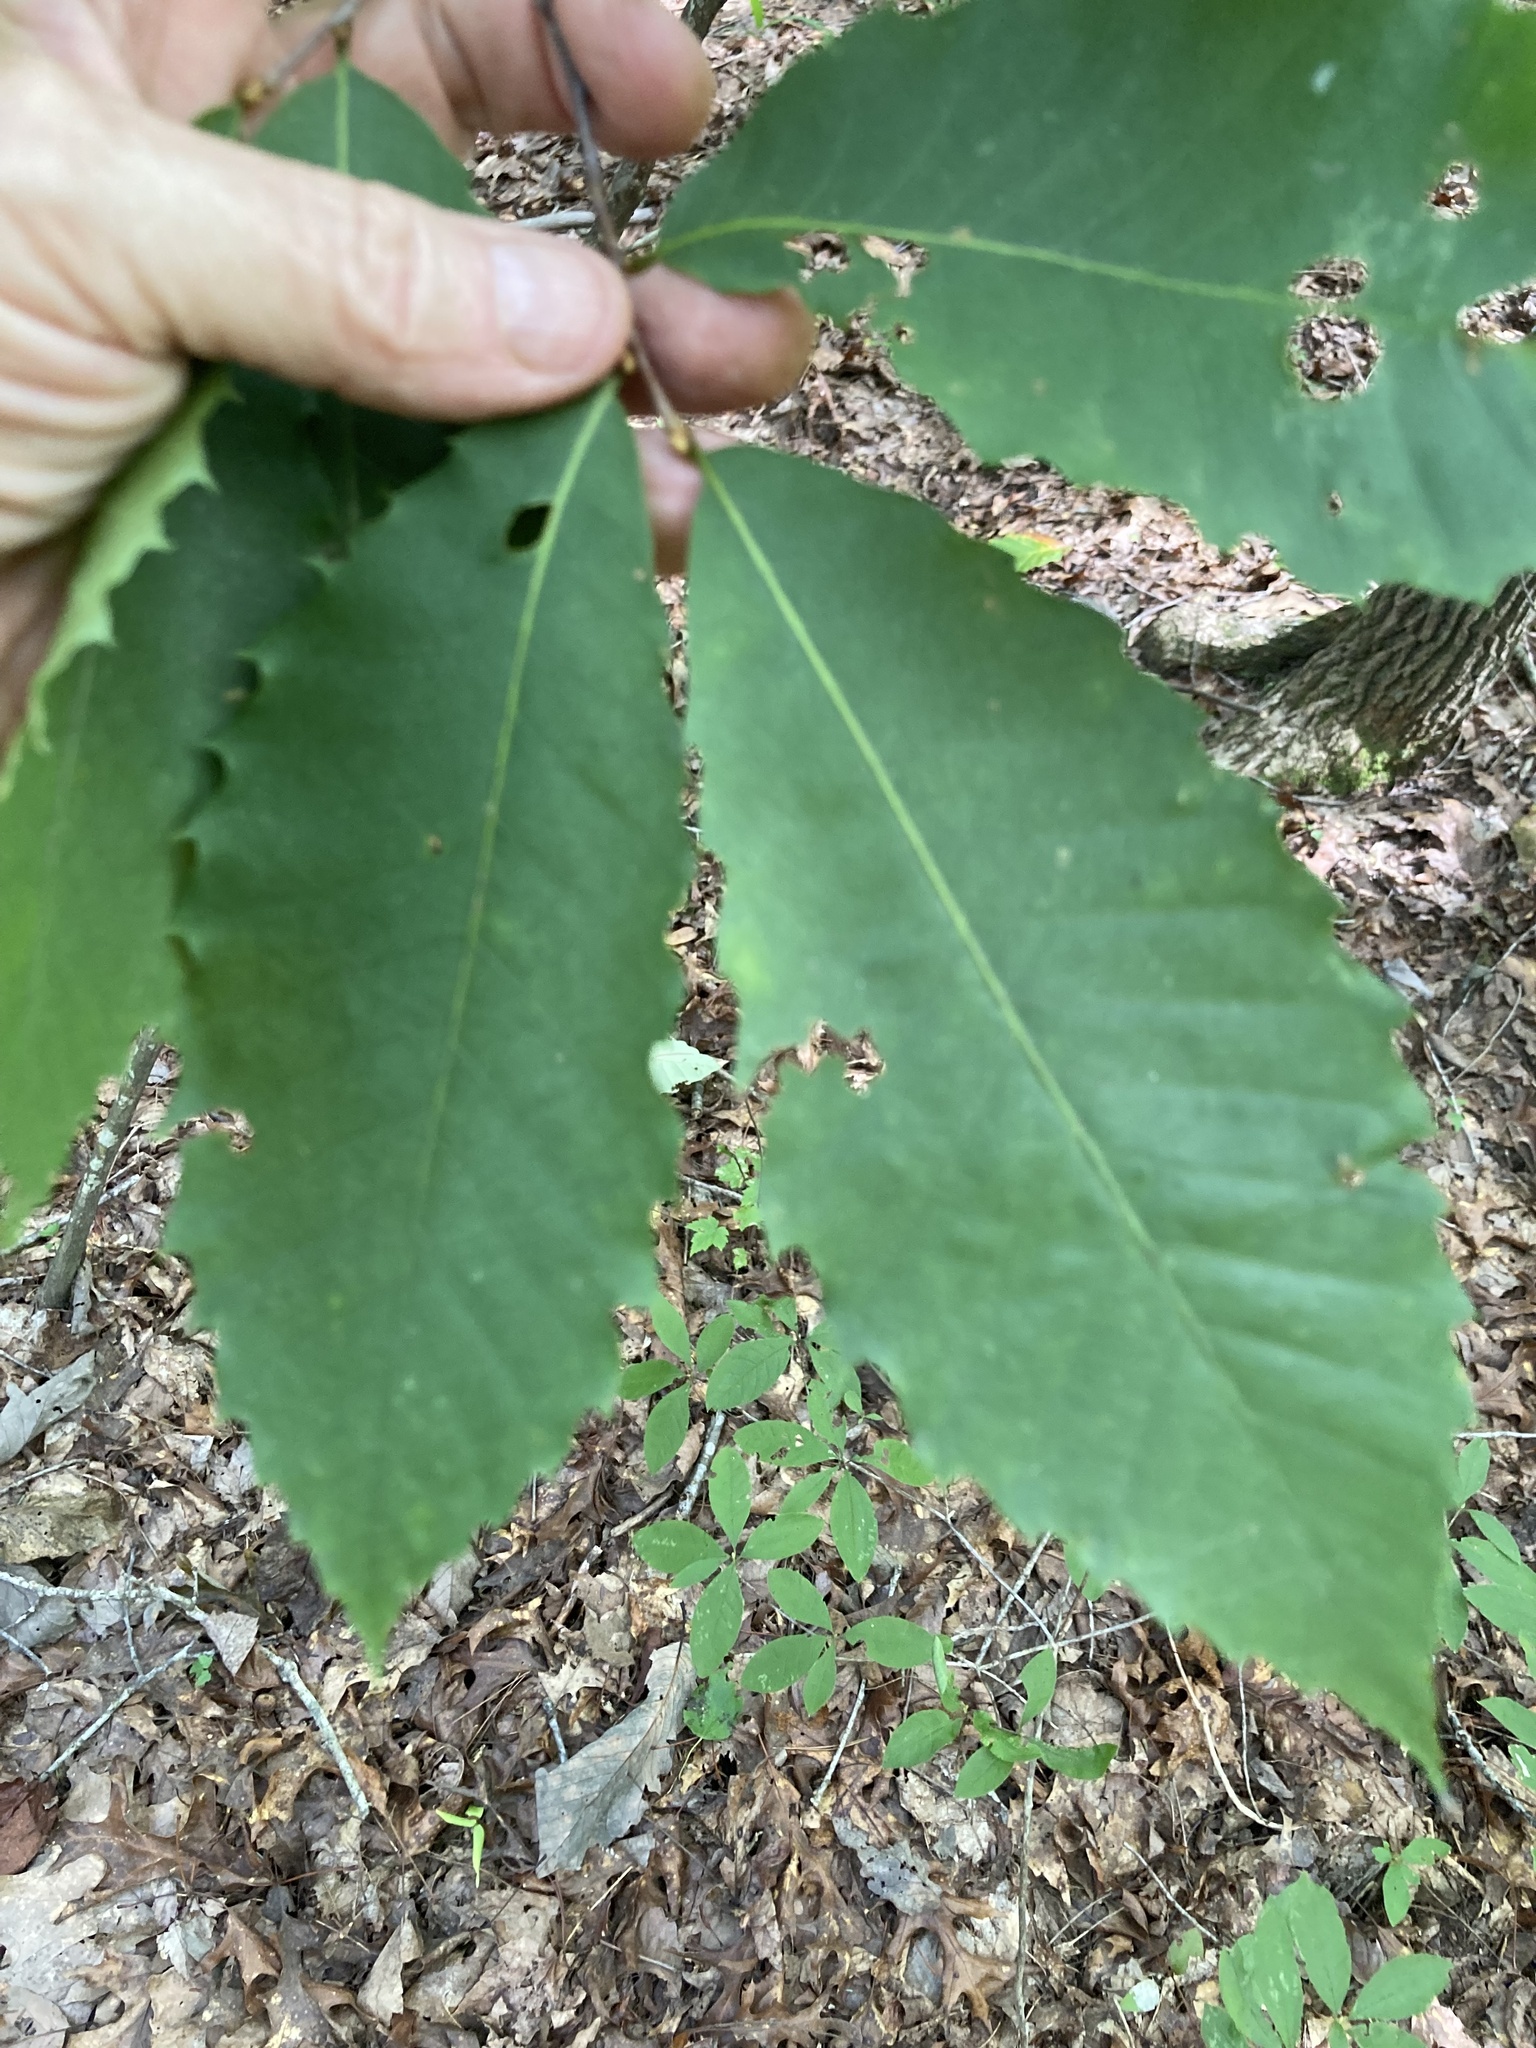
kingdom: Plantae
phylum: Tracheophyta
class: Magnoliopsida
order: Fagales
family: Fagaceae
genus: Castanea
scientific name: Castanea dentata
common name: American chestnut
